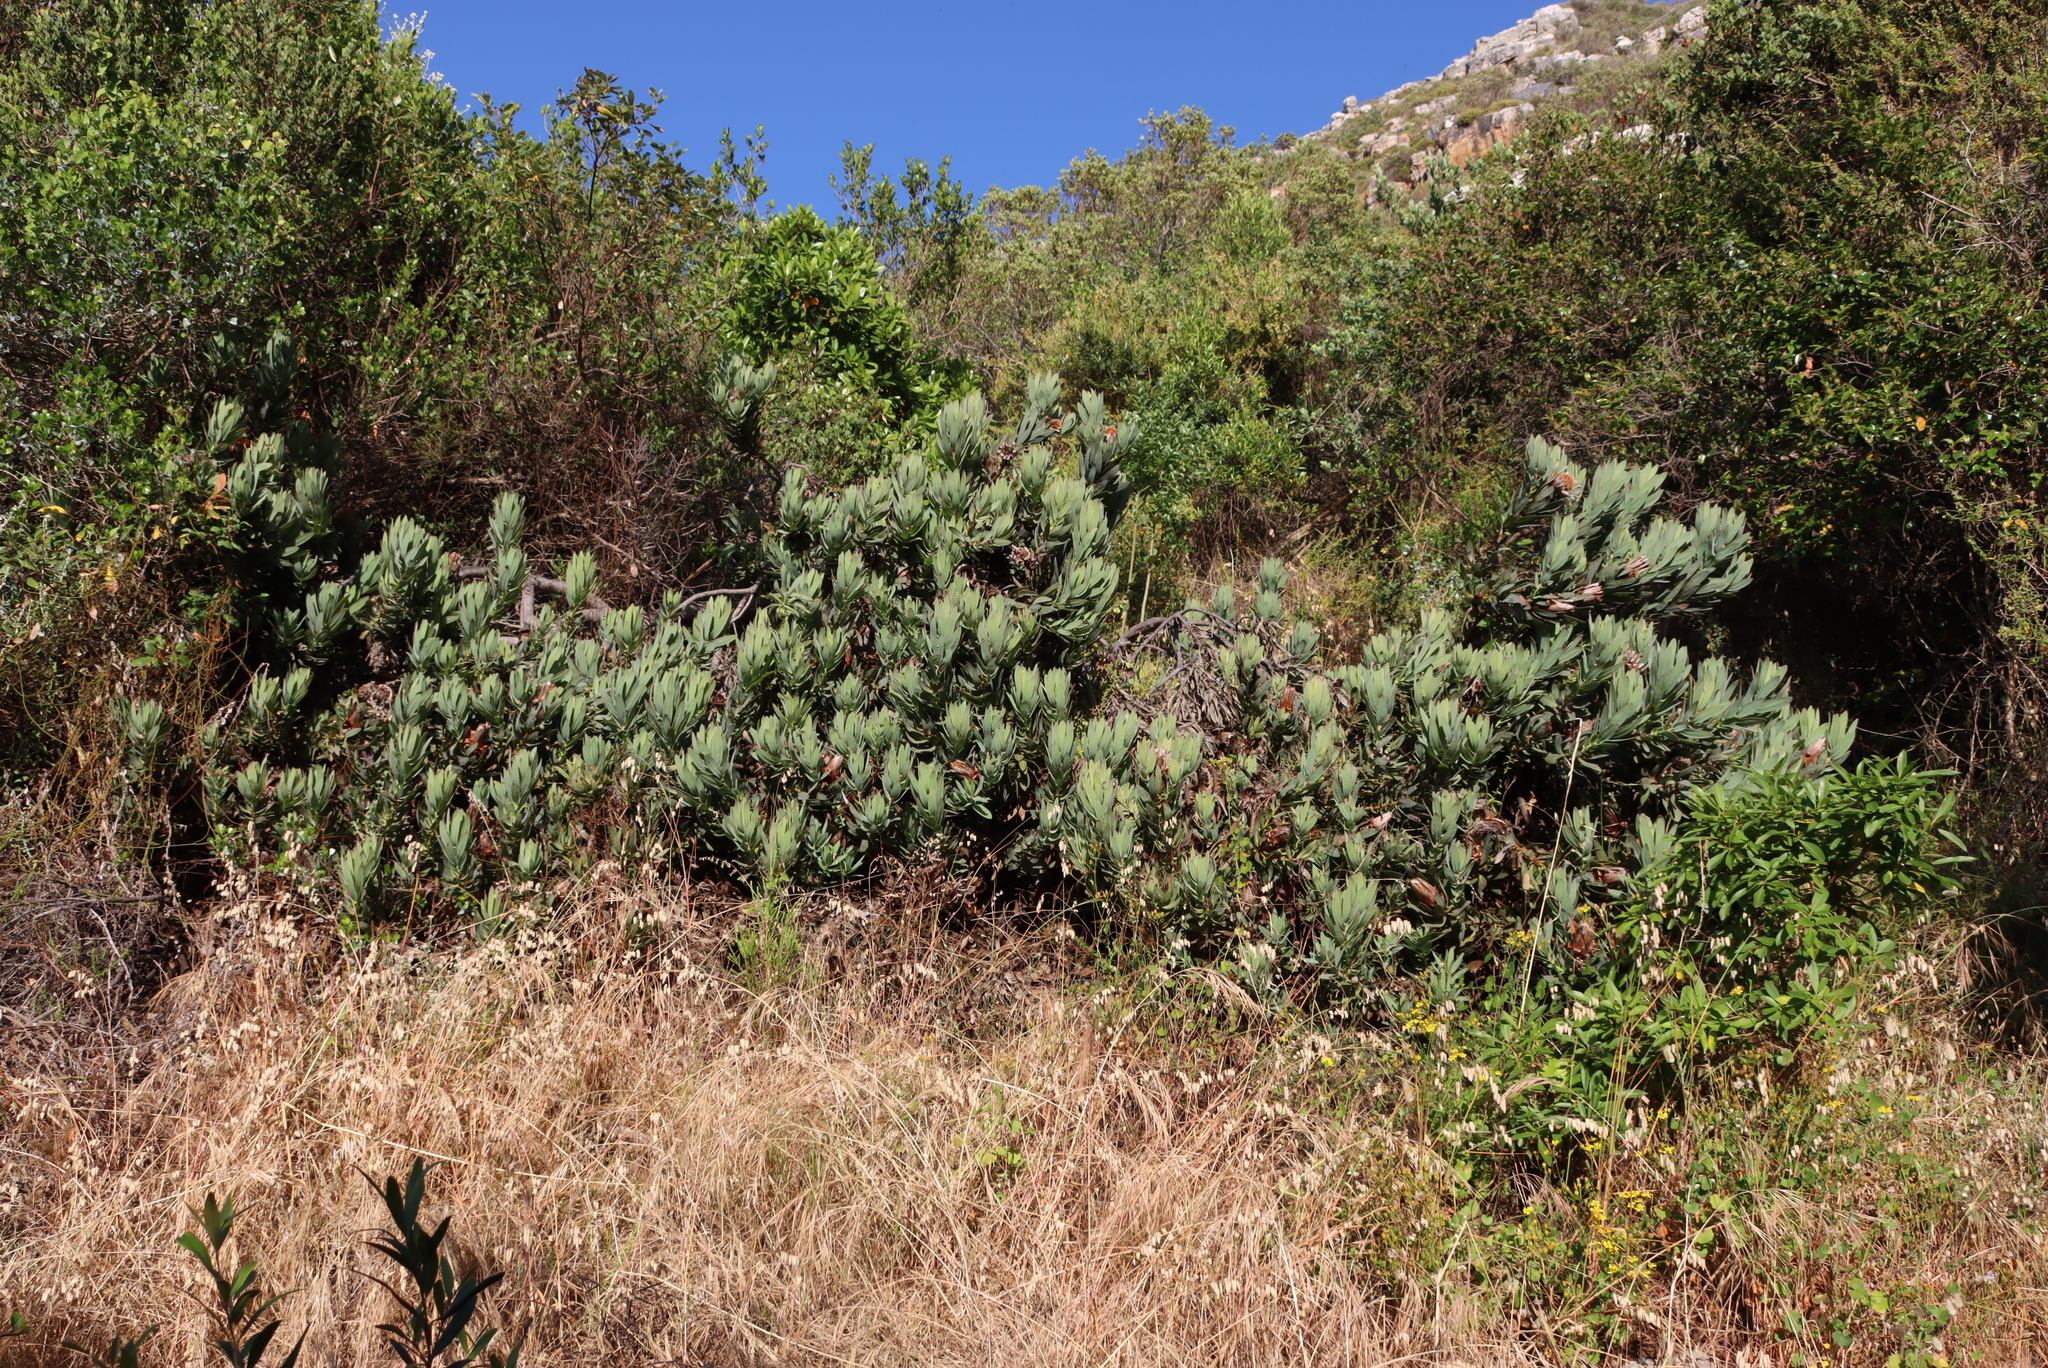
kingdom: Plantae
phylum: Tracheophyta
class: Magnoliopsida
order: Proteales
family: Proteaceae
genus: Protea
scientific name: Protea laurifolia
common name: Grey-leaf sugarbsh
